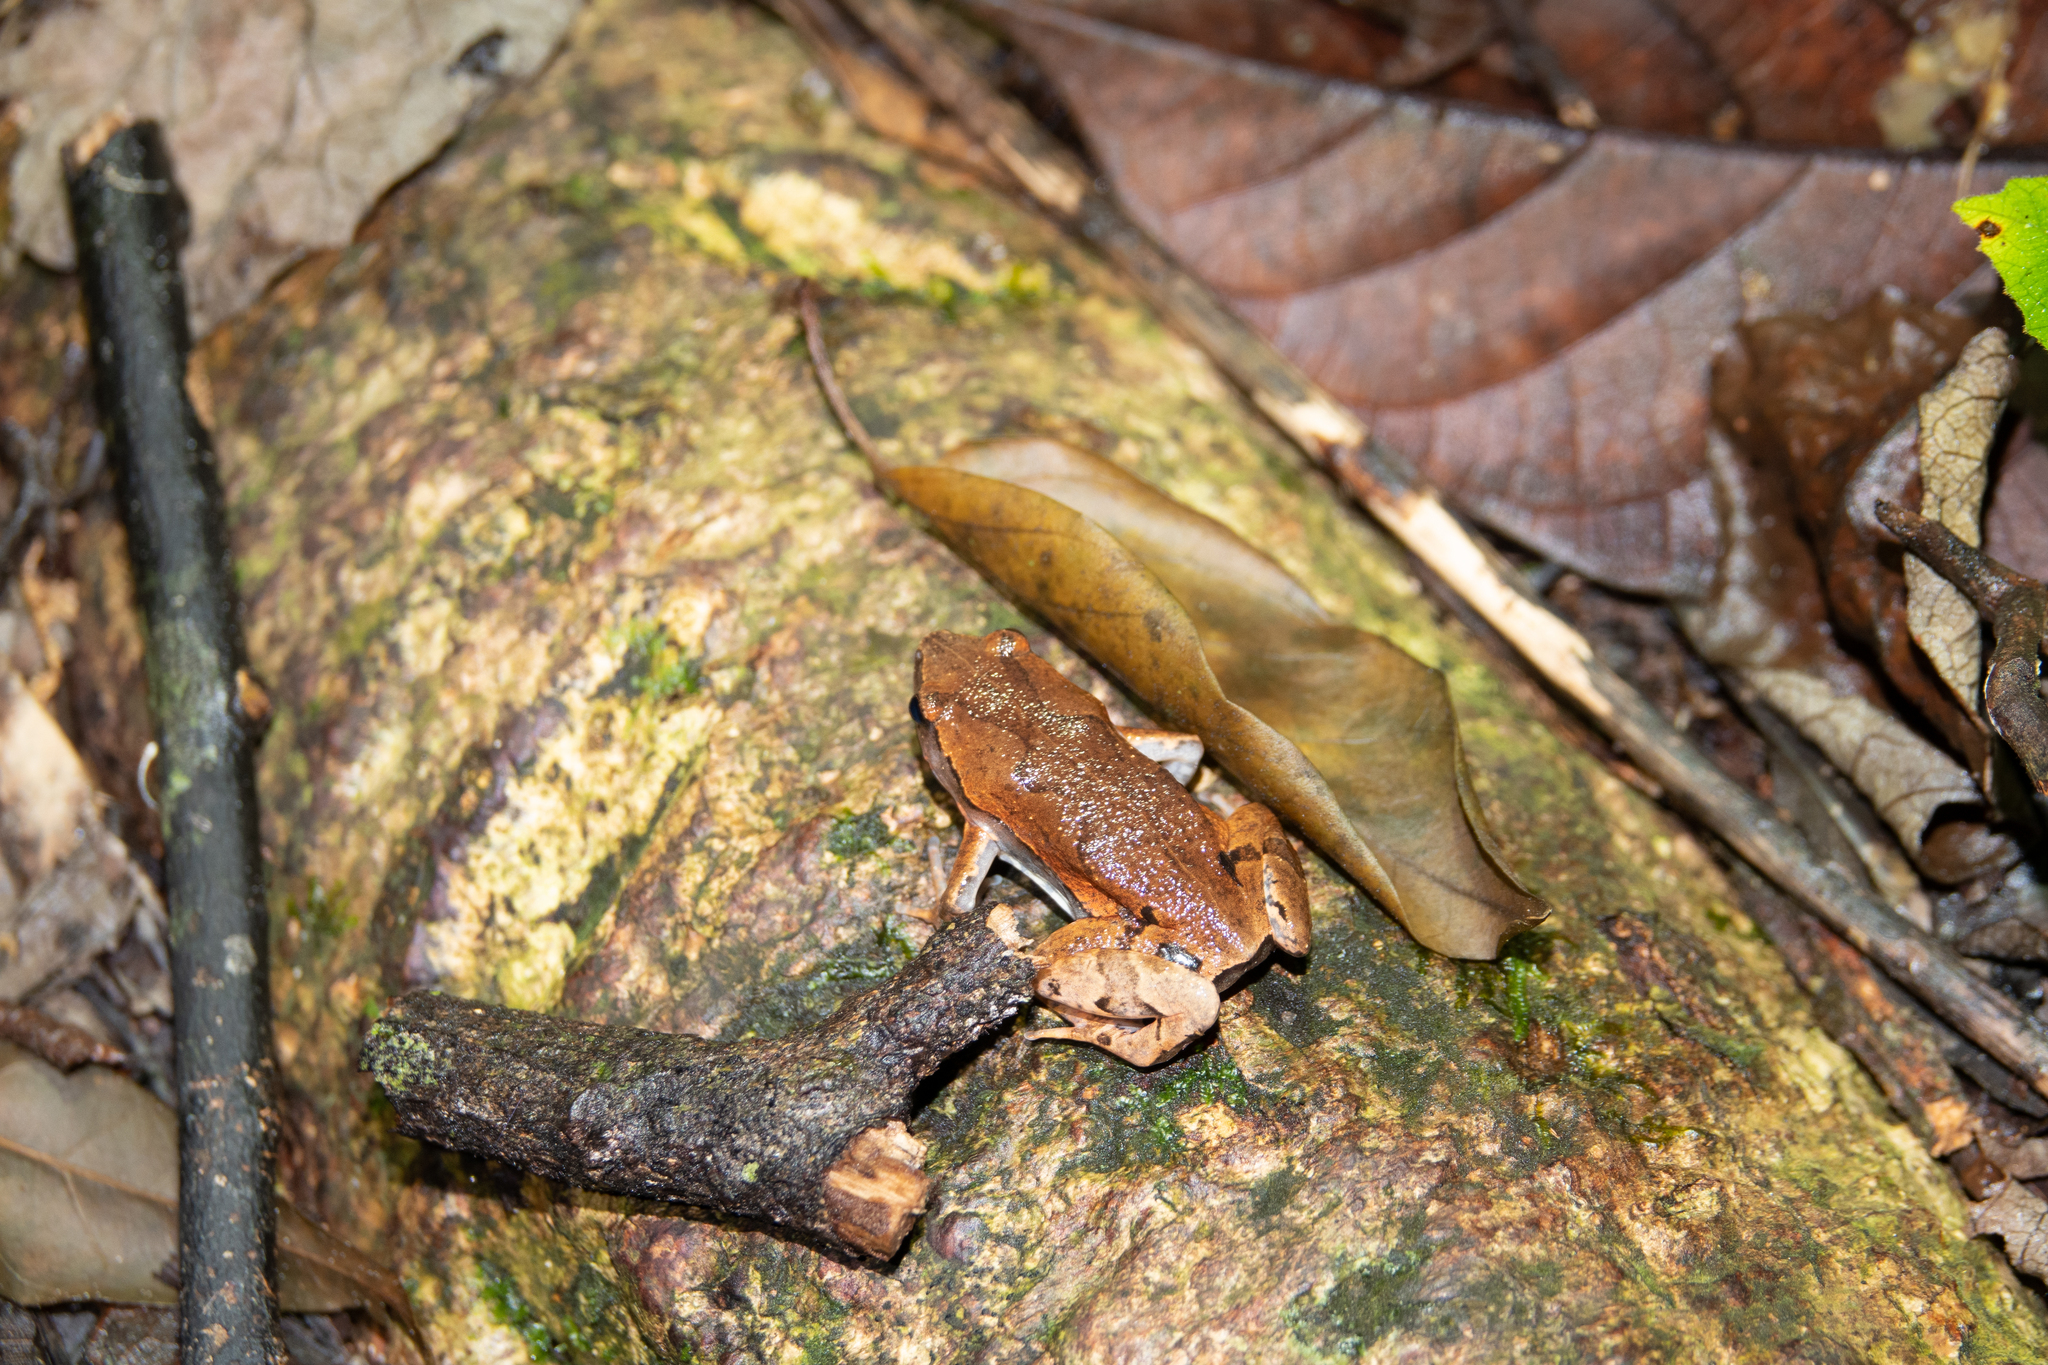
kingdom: Animalia
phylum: Chordata
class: Amphibia
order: Anura
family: Microhylidae
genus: Hamptophryne
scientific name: Hamptophryne boliviana
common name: Bolivian bleating frog
